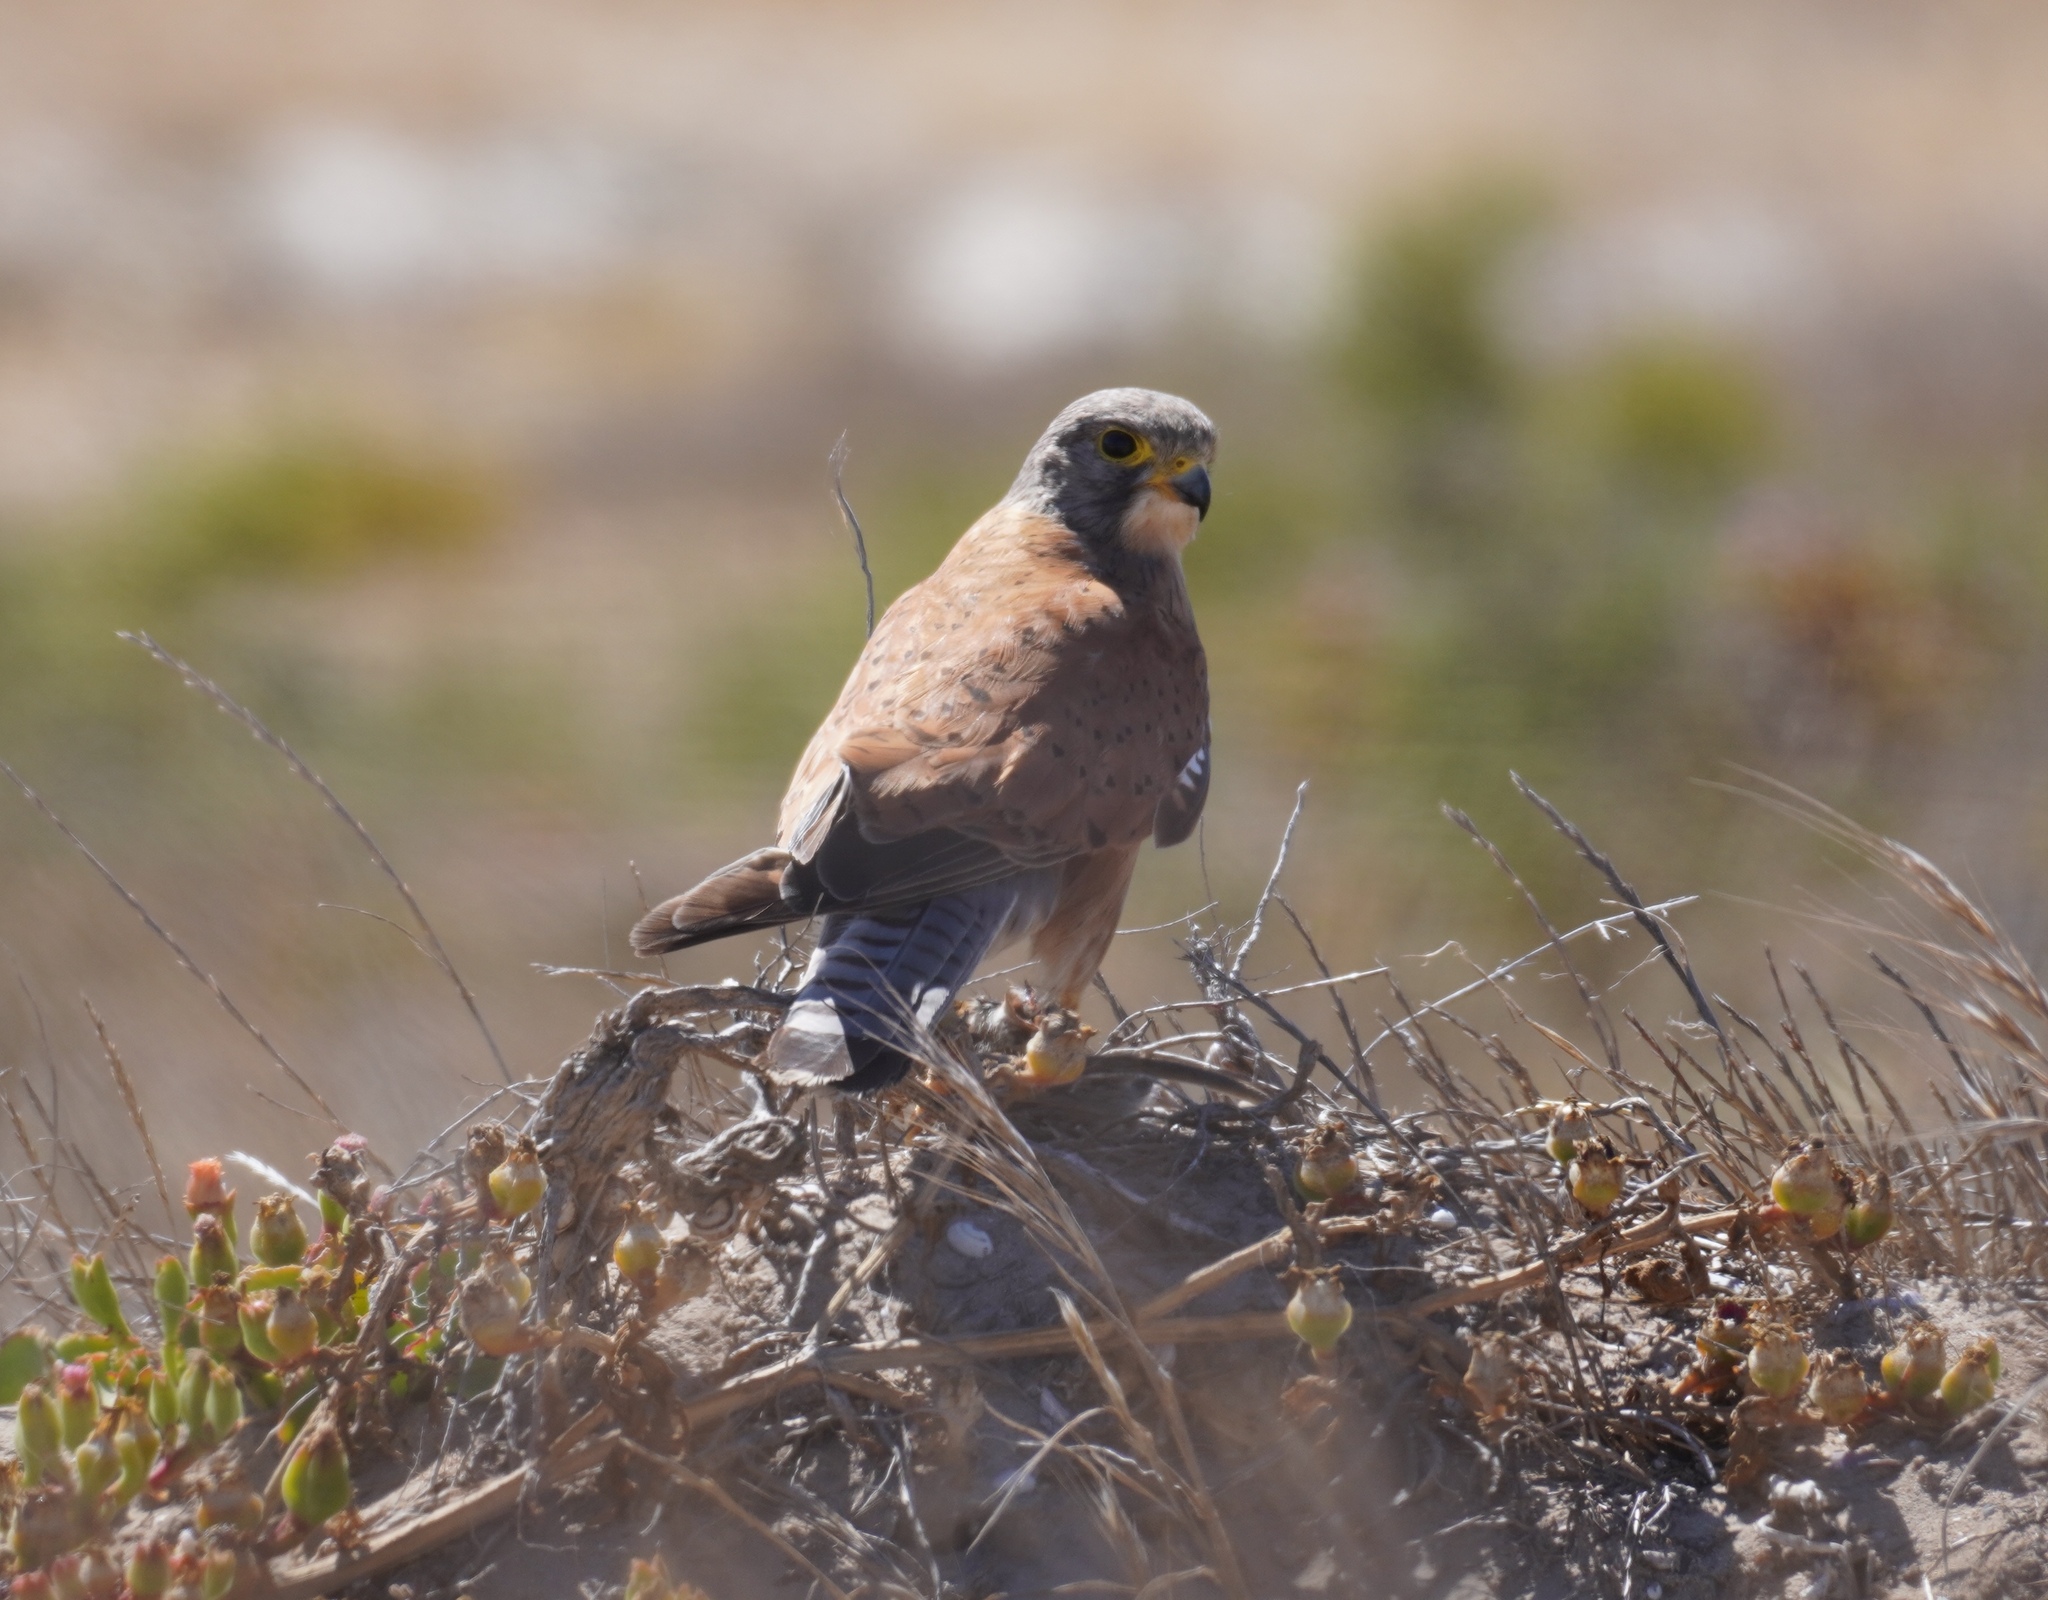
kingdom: Animalia
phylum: Chordata
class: Aves
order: Falconiformes
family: Falconidae
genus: Falco
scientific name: Falco rupicolus
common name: Rock kestrel
